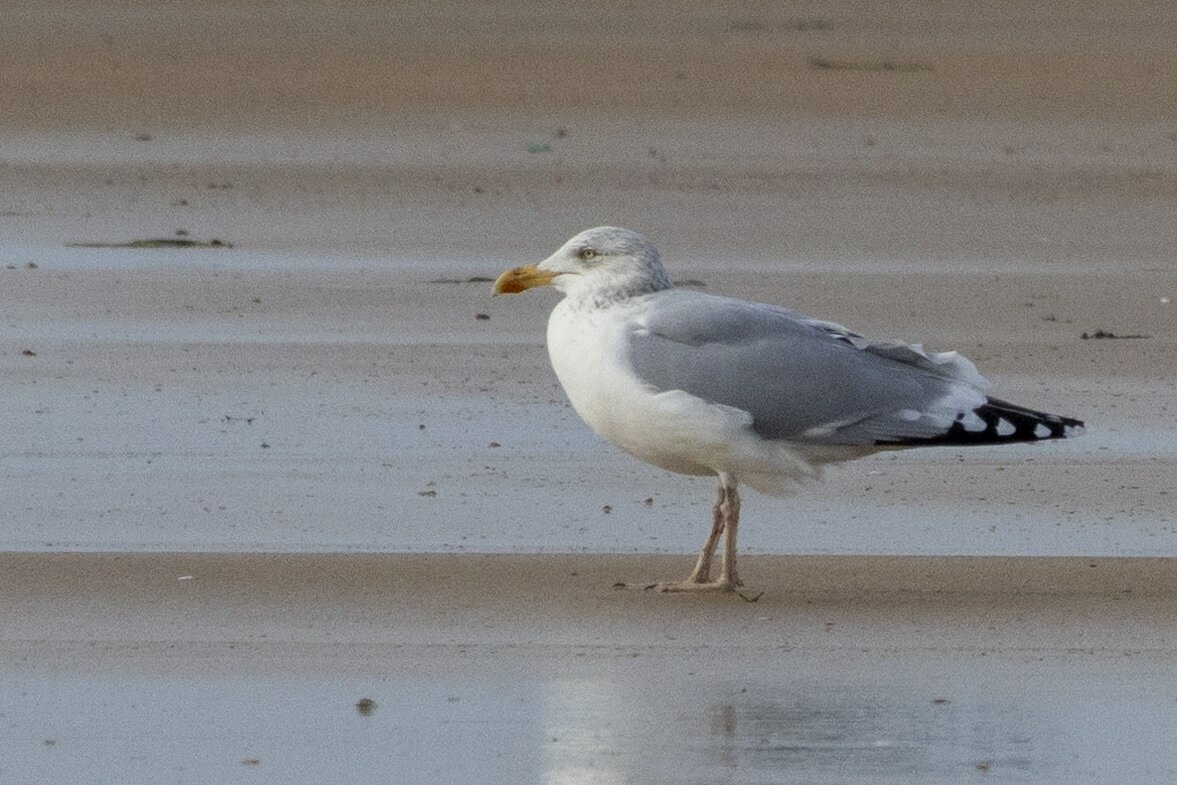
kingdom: Animalia
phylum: Chordata
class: Aves
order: Charadriiformes
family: Laridae
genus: Larus
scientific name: Larus argentatus
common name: Herring gull
